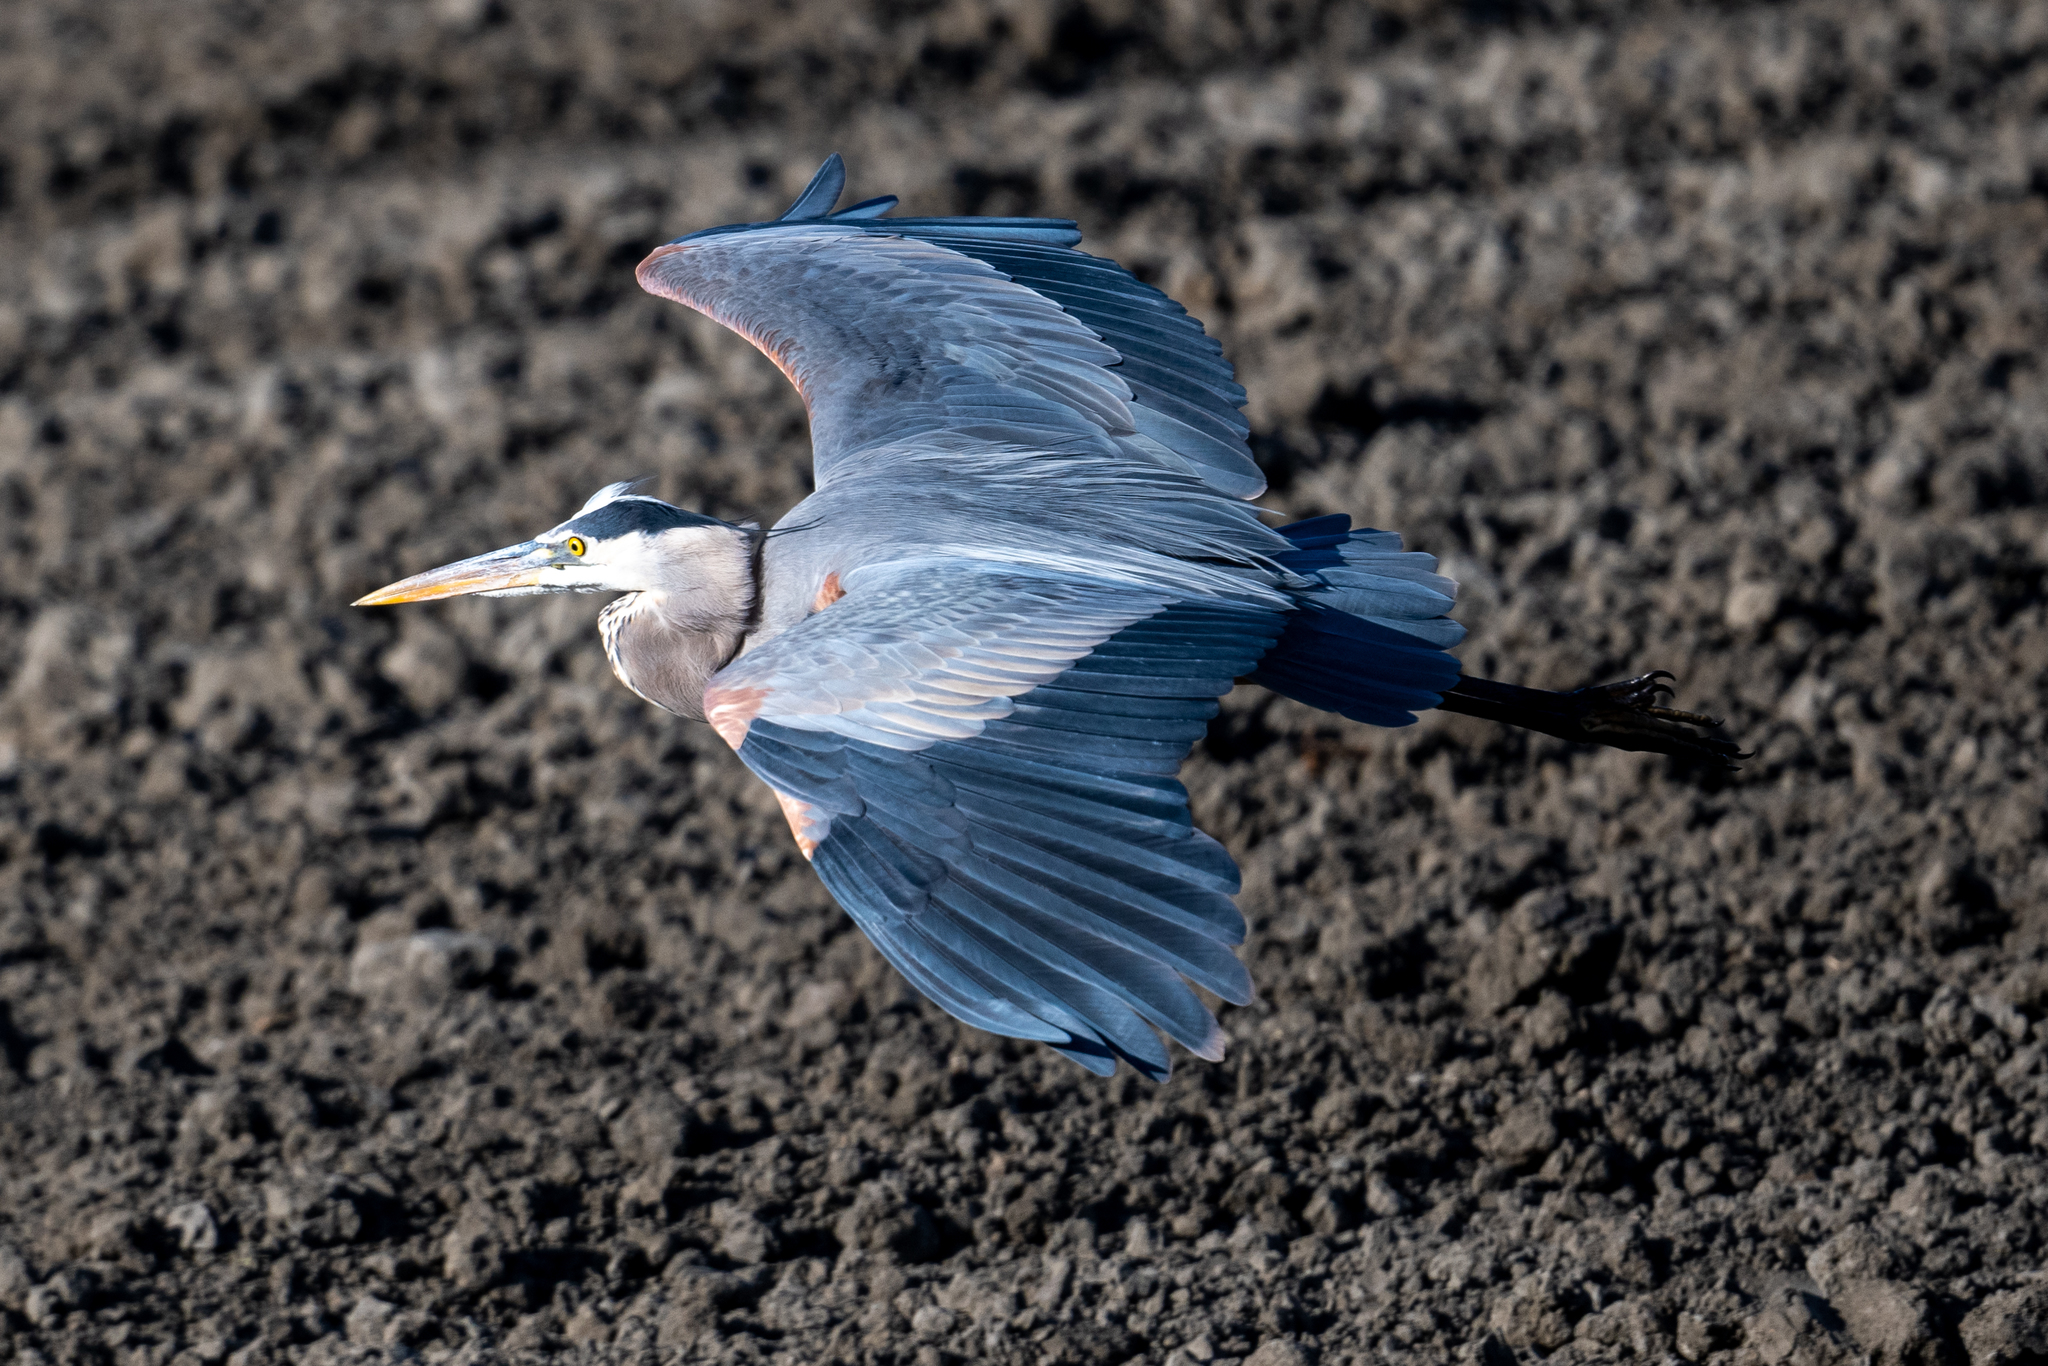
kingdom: Animalia
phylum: Chordata
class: Aves
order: Pelecaniformes
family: Ardeidae
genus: Ardea
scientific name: Ardea herodias
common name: Great blue heron
